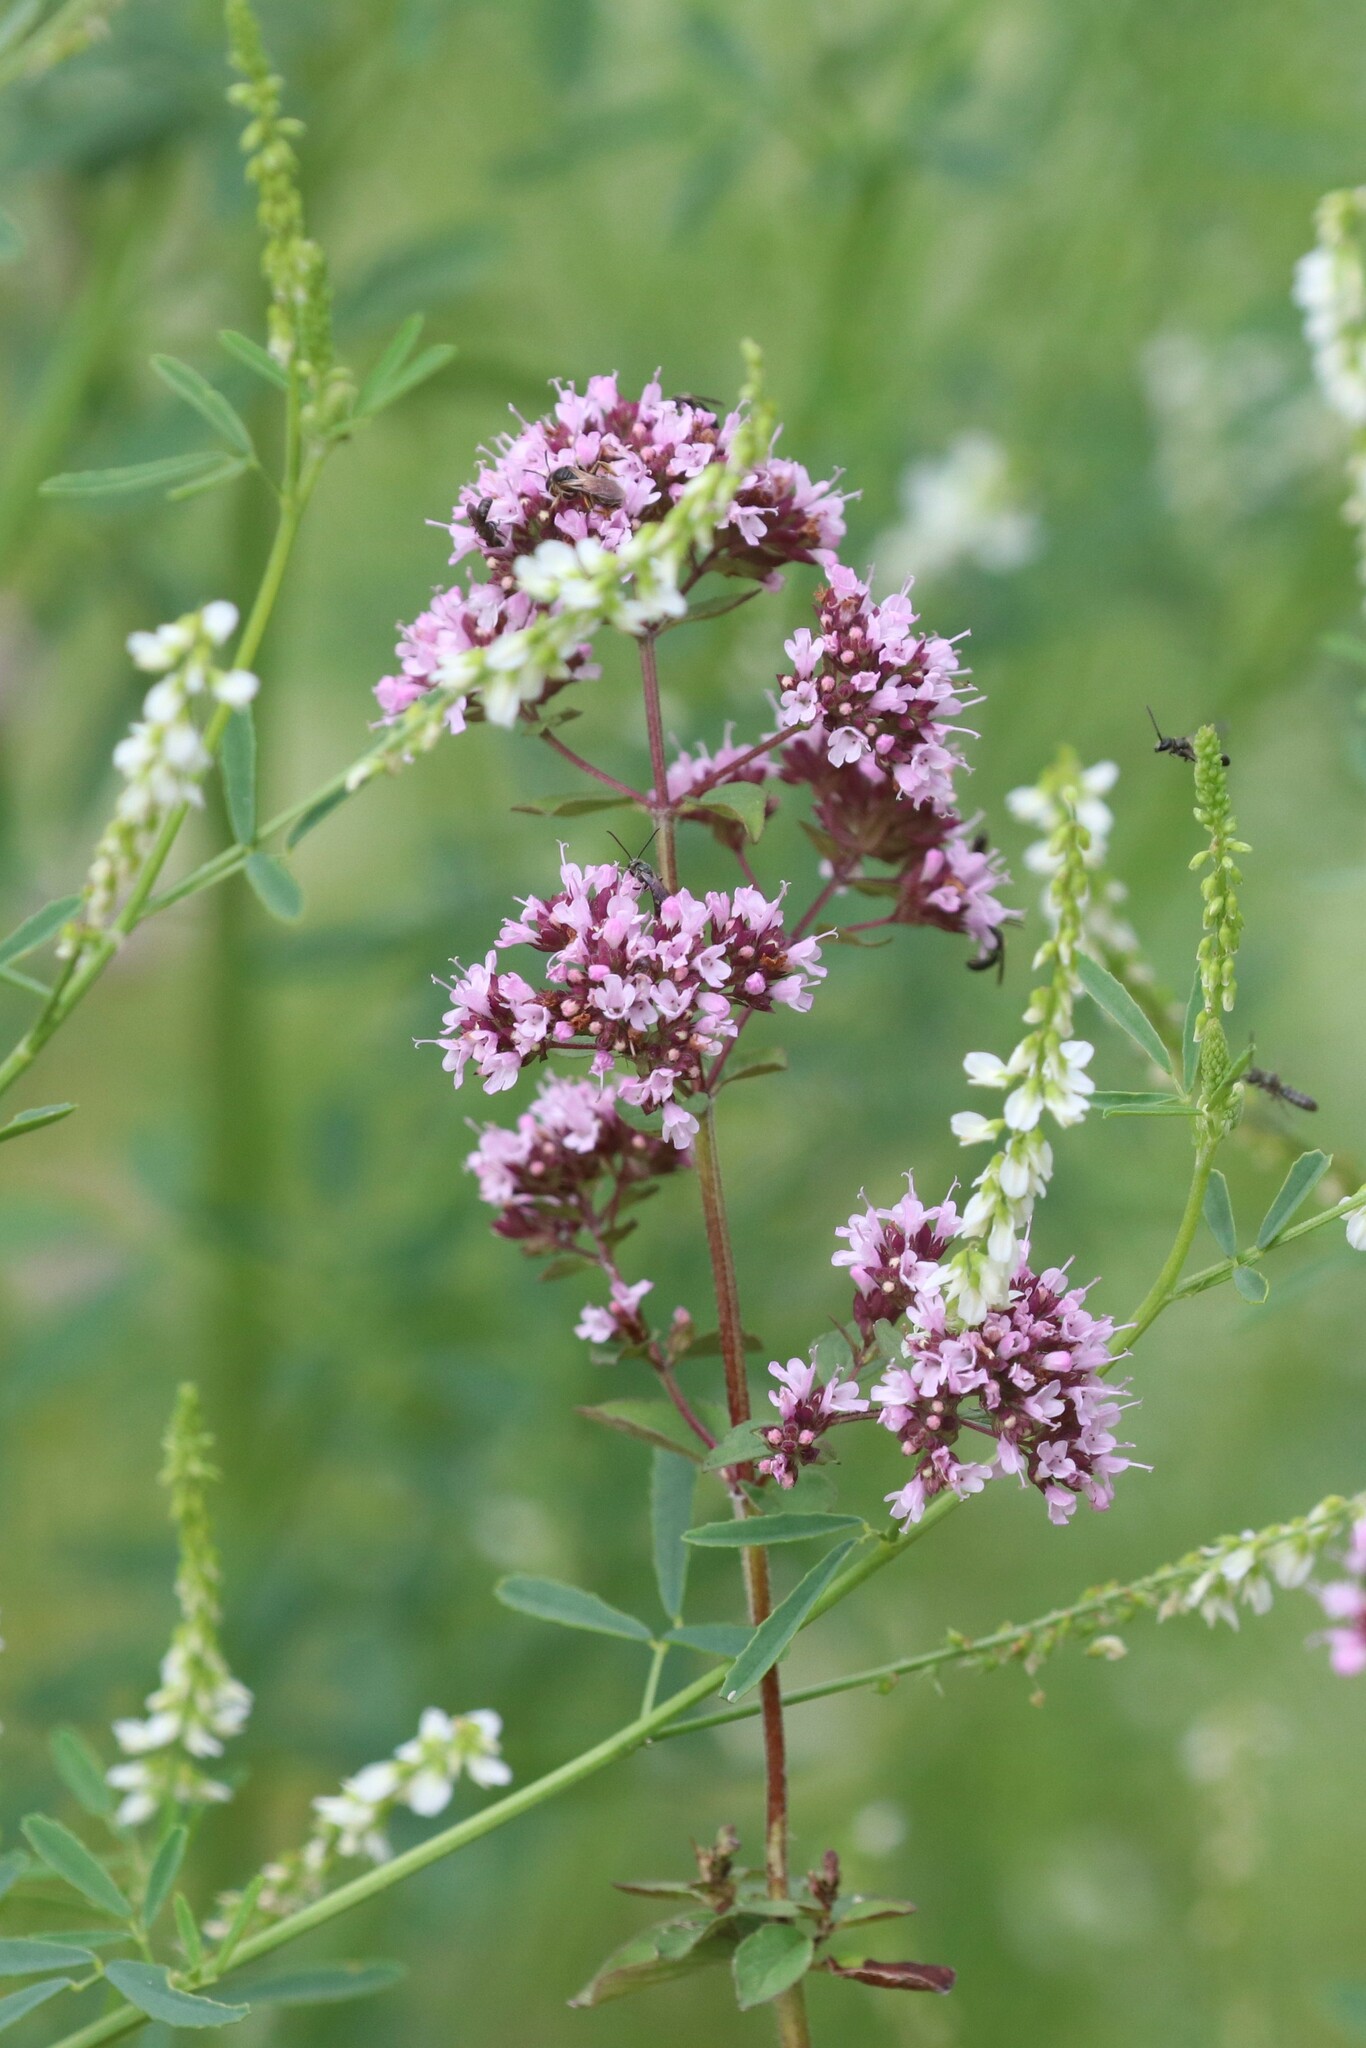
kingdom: Plantae
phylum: Tracheophyta
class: Magnoliopsida
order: Lamiales
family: Lamiaceae
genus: Origanum
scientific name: Origanum vulgare
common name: Wild marjoram
